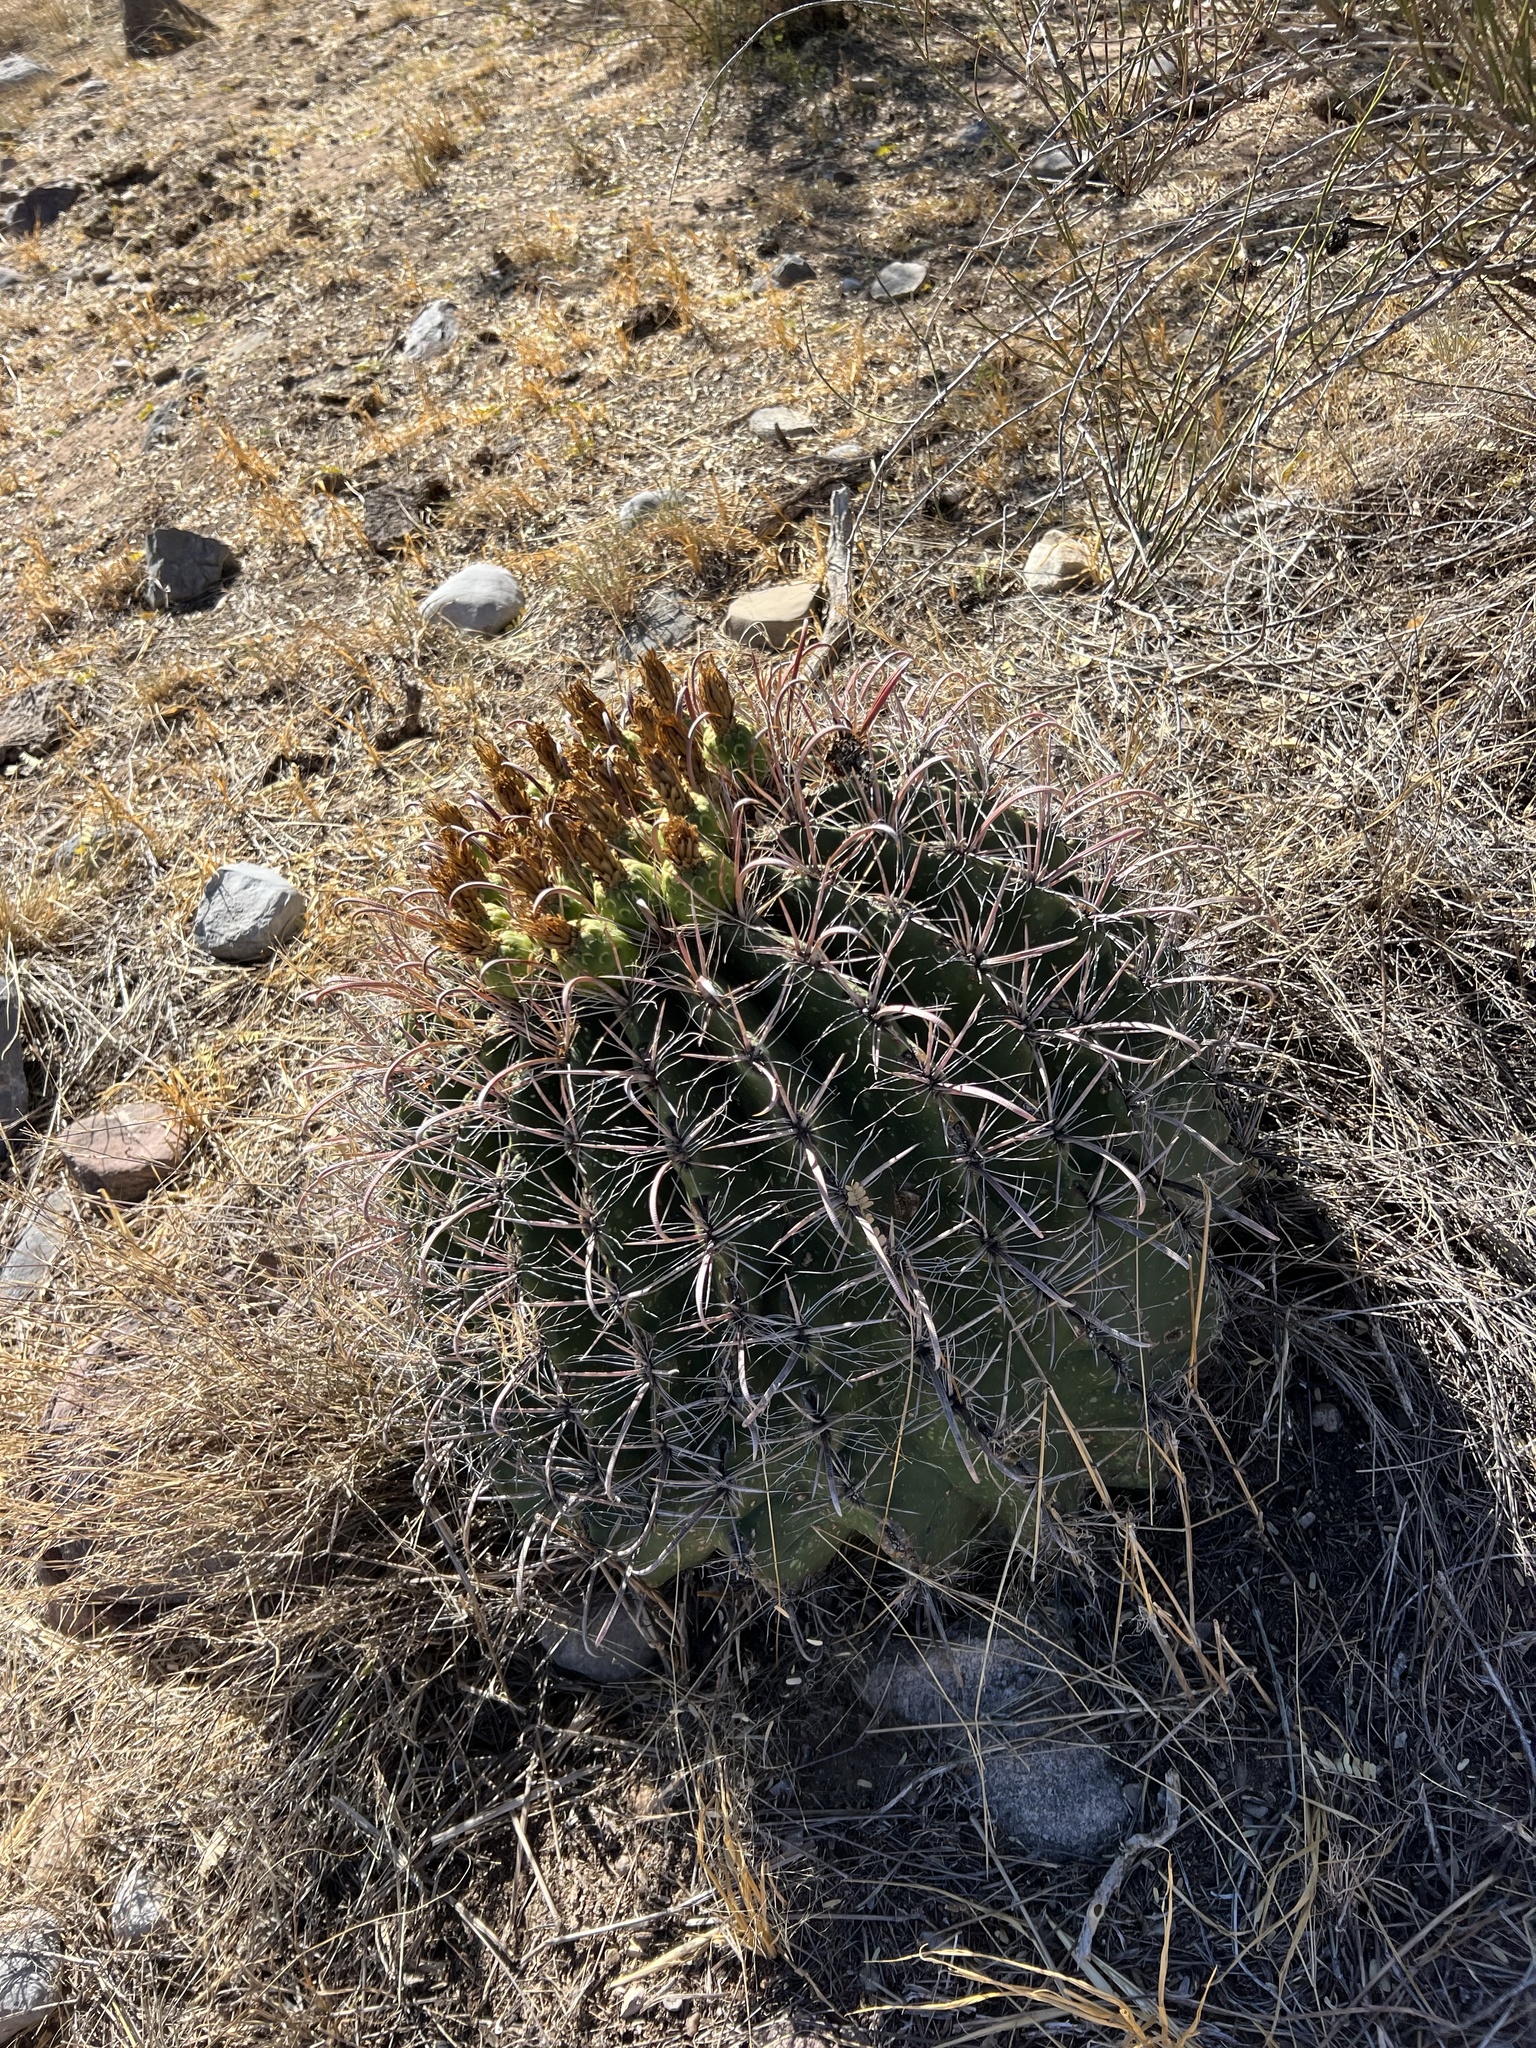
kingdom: Plantae
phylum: Tracheophyta
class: Magnoliopsida
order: Caryophyllales
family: Cactaceae
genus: Ferocactus
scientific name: Ferocactus wislizeni
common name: Candy barrel cactus
